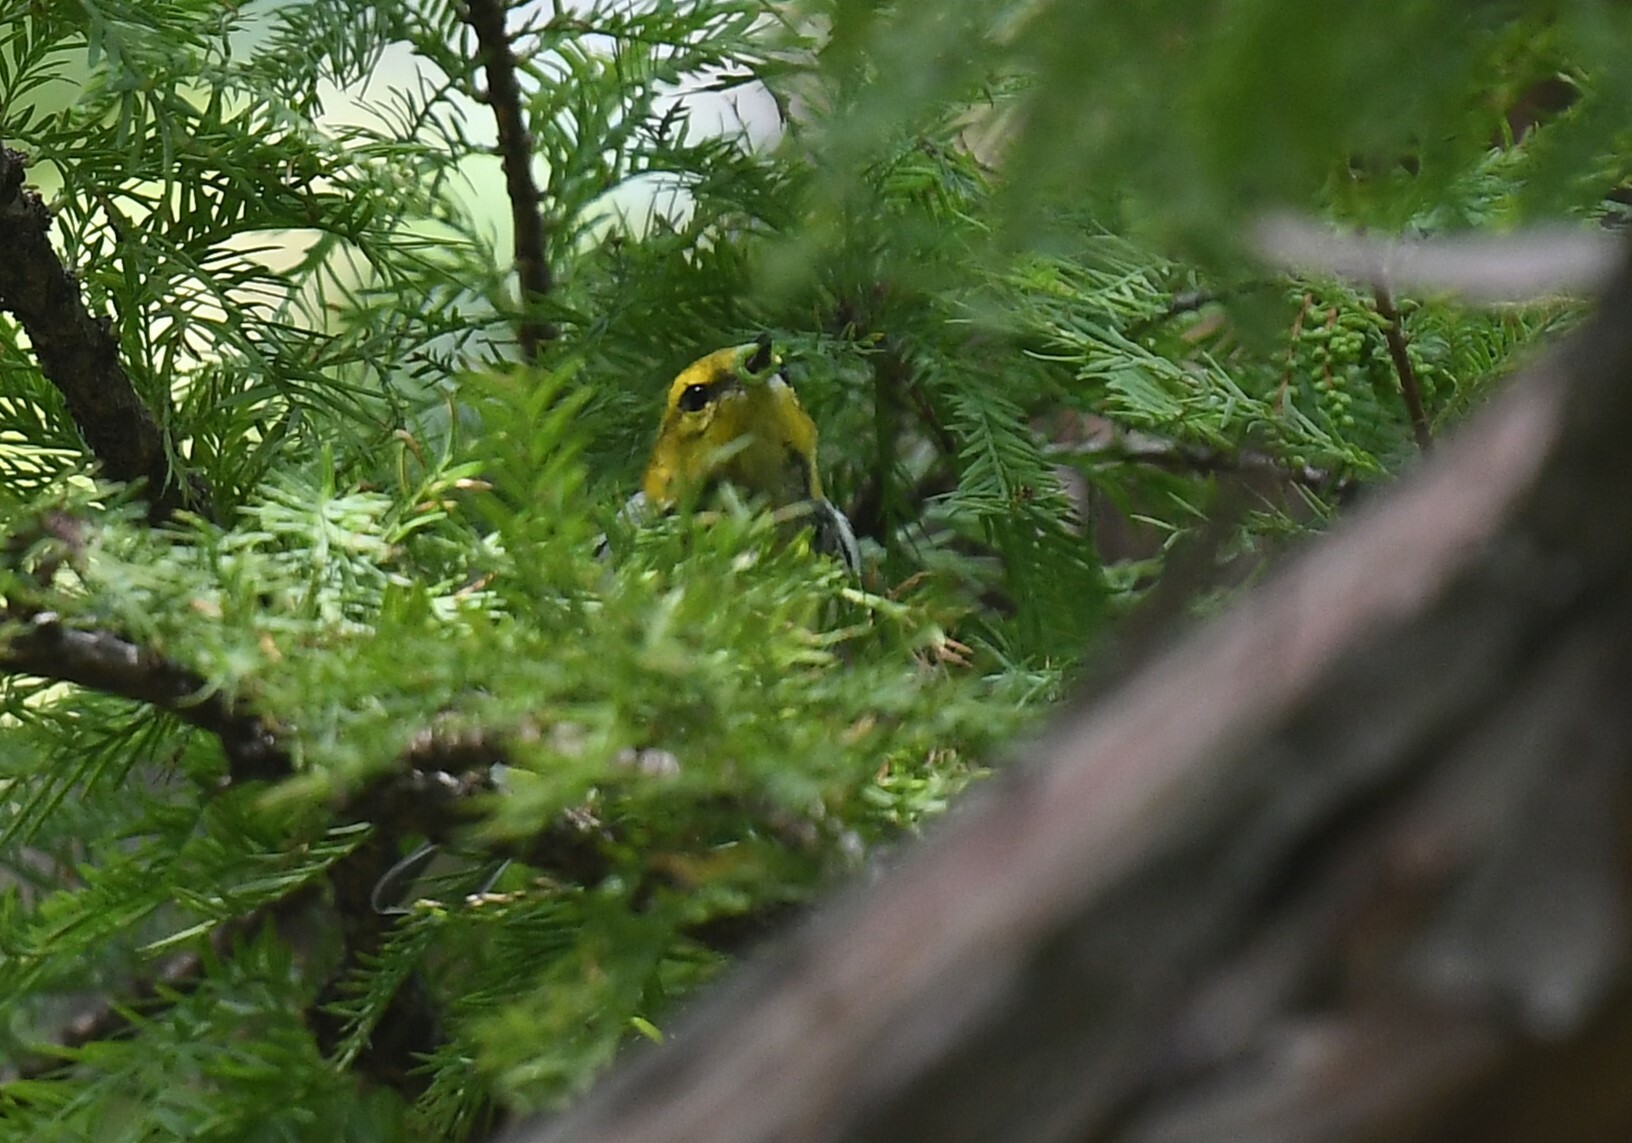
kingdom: Animalia
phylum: Chordata
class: Aves
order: Passeriformes
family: Parulidae
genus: Setophaga
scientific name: Setophaga virens
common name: Black-throated green warbler
